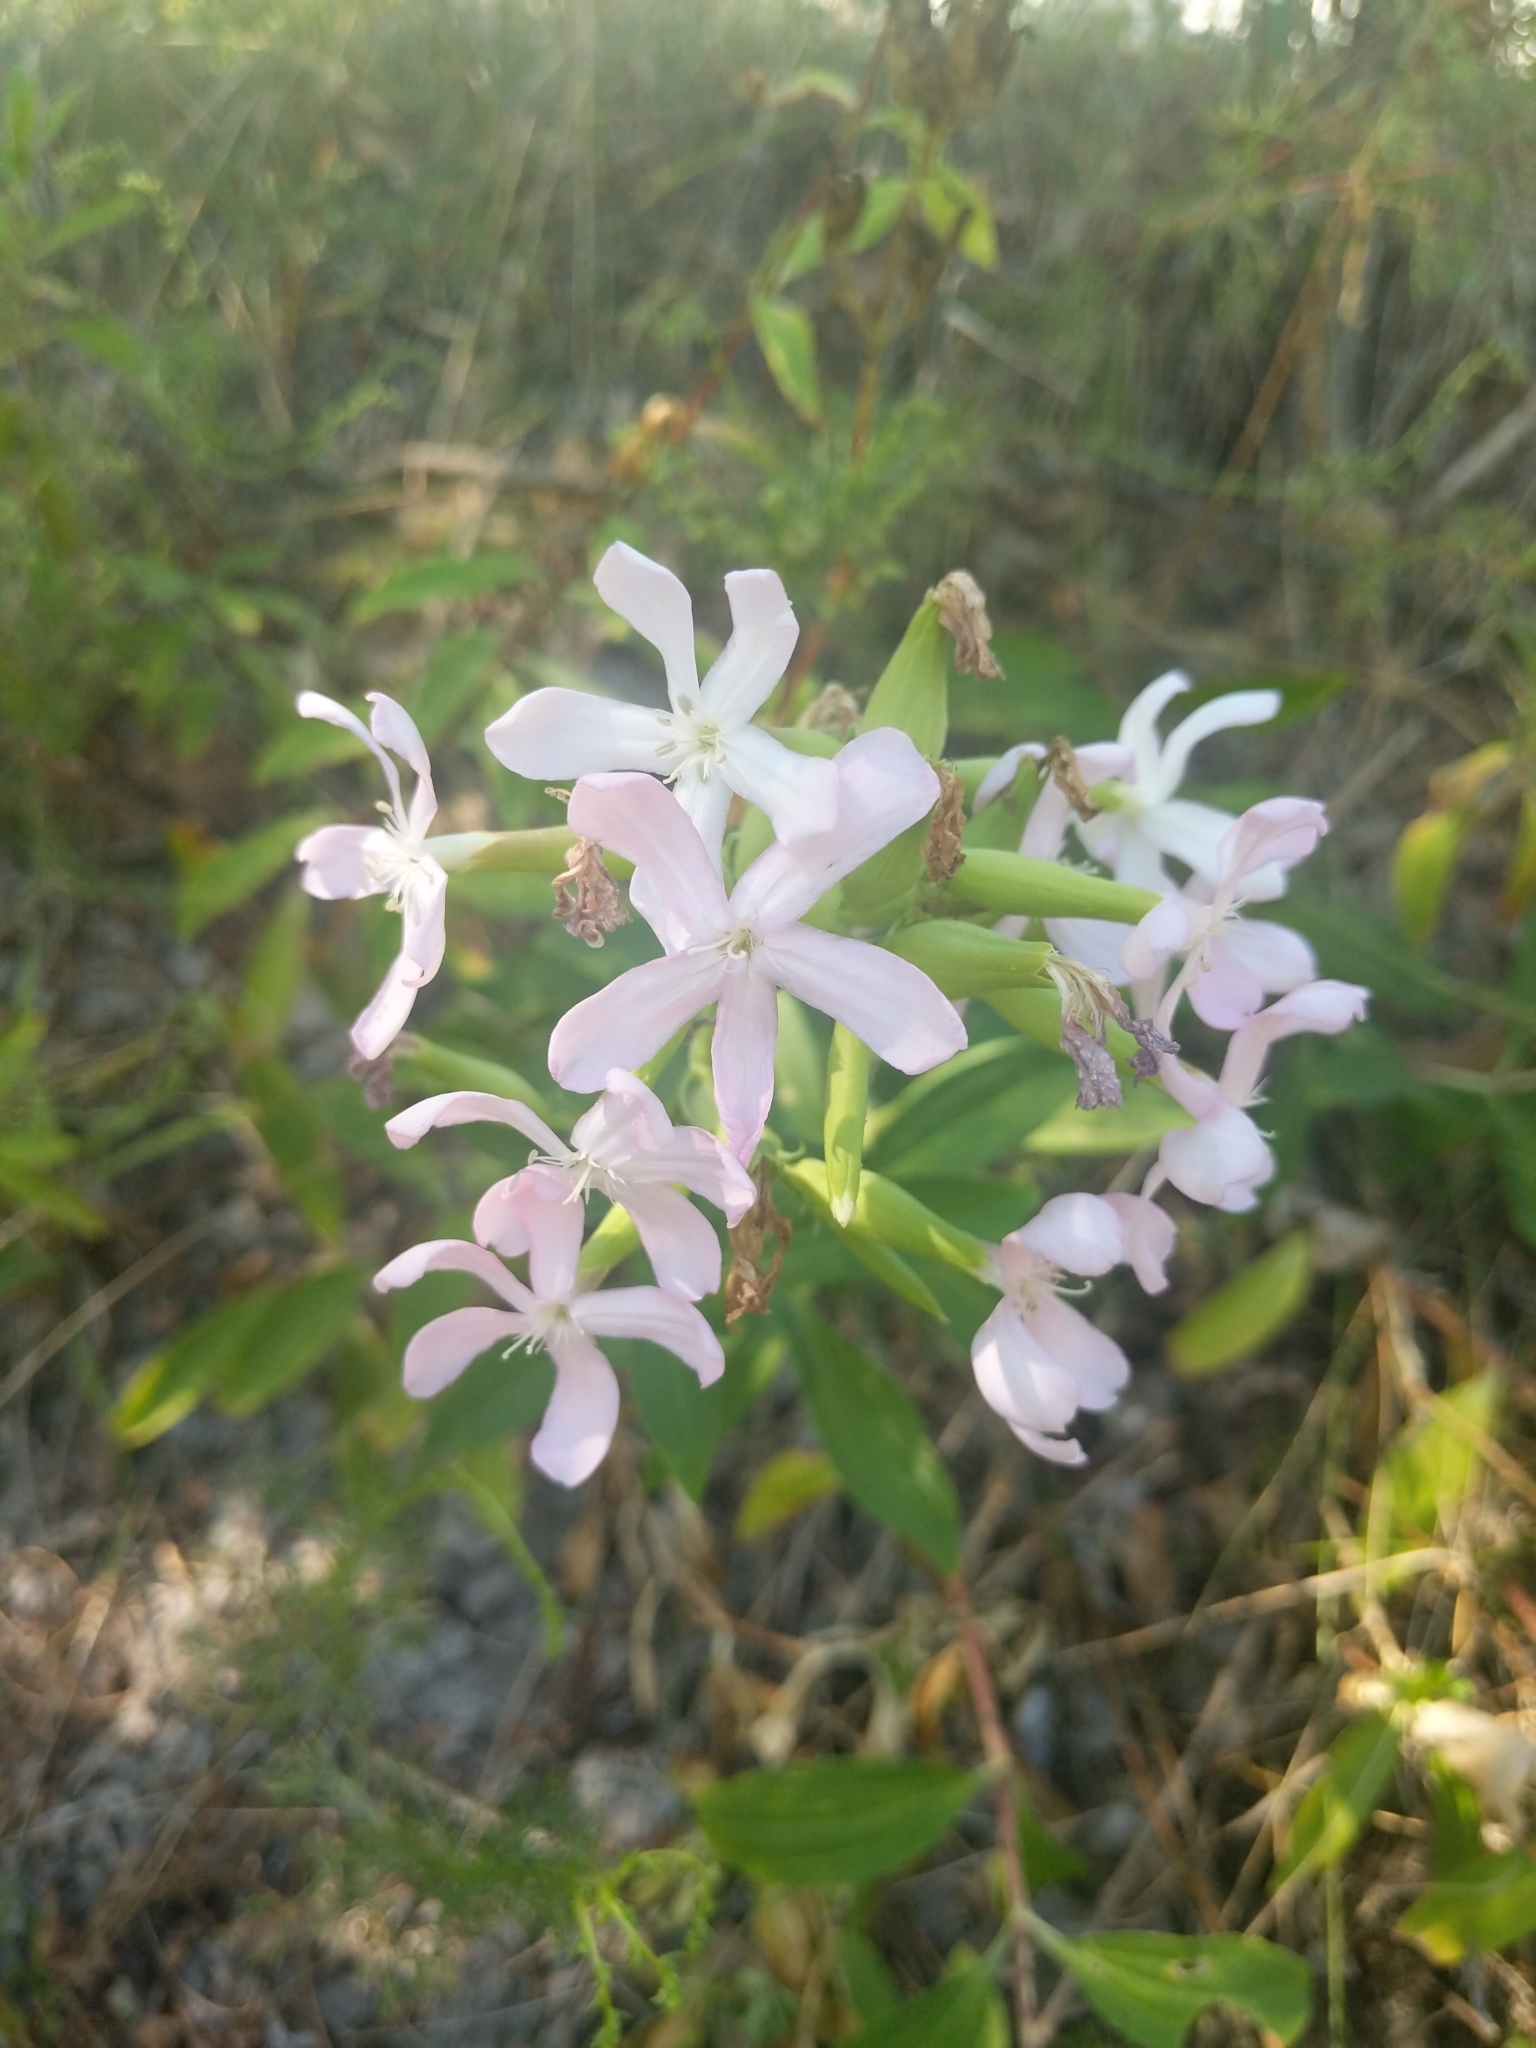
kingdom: Plantae
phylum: Tracheophyta
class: Magnoliopsida
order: Caryophyllales
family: Caryophyllaceae
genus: Saponaria
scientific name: Saponaria officinalis
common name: Soapwort
